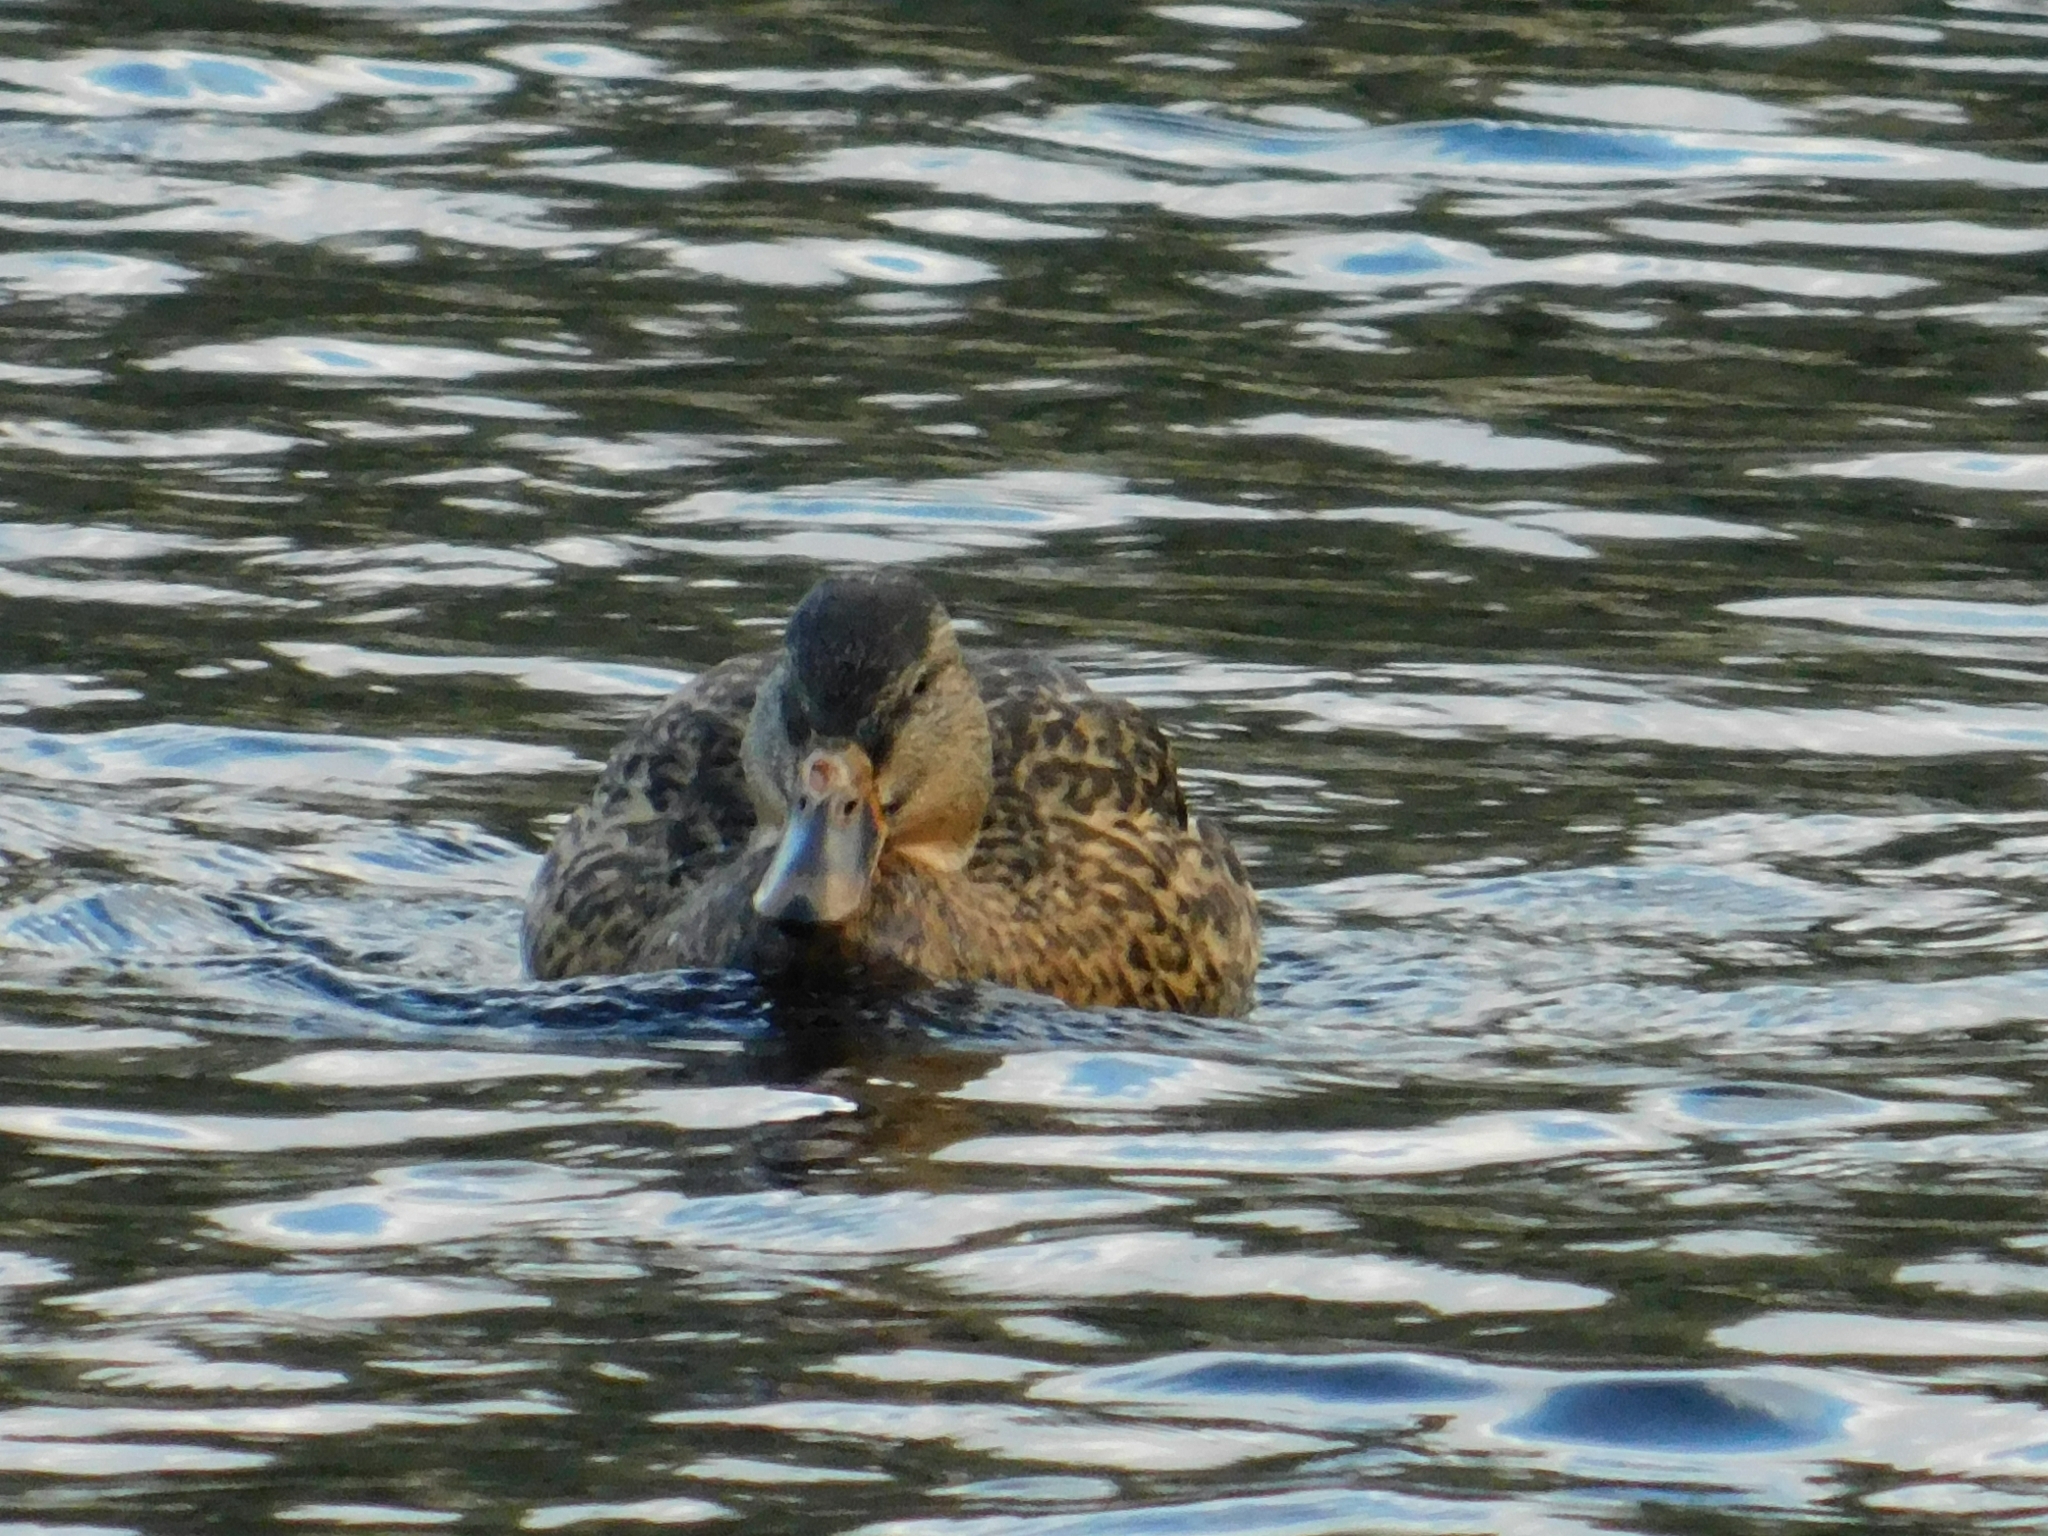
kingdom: Animalia
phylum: Chordata
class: Aves
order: Anseriformes
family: Anatidae
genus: Anas
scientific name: Anas platyrhynchos
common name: Mallard
